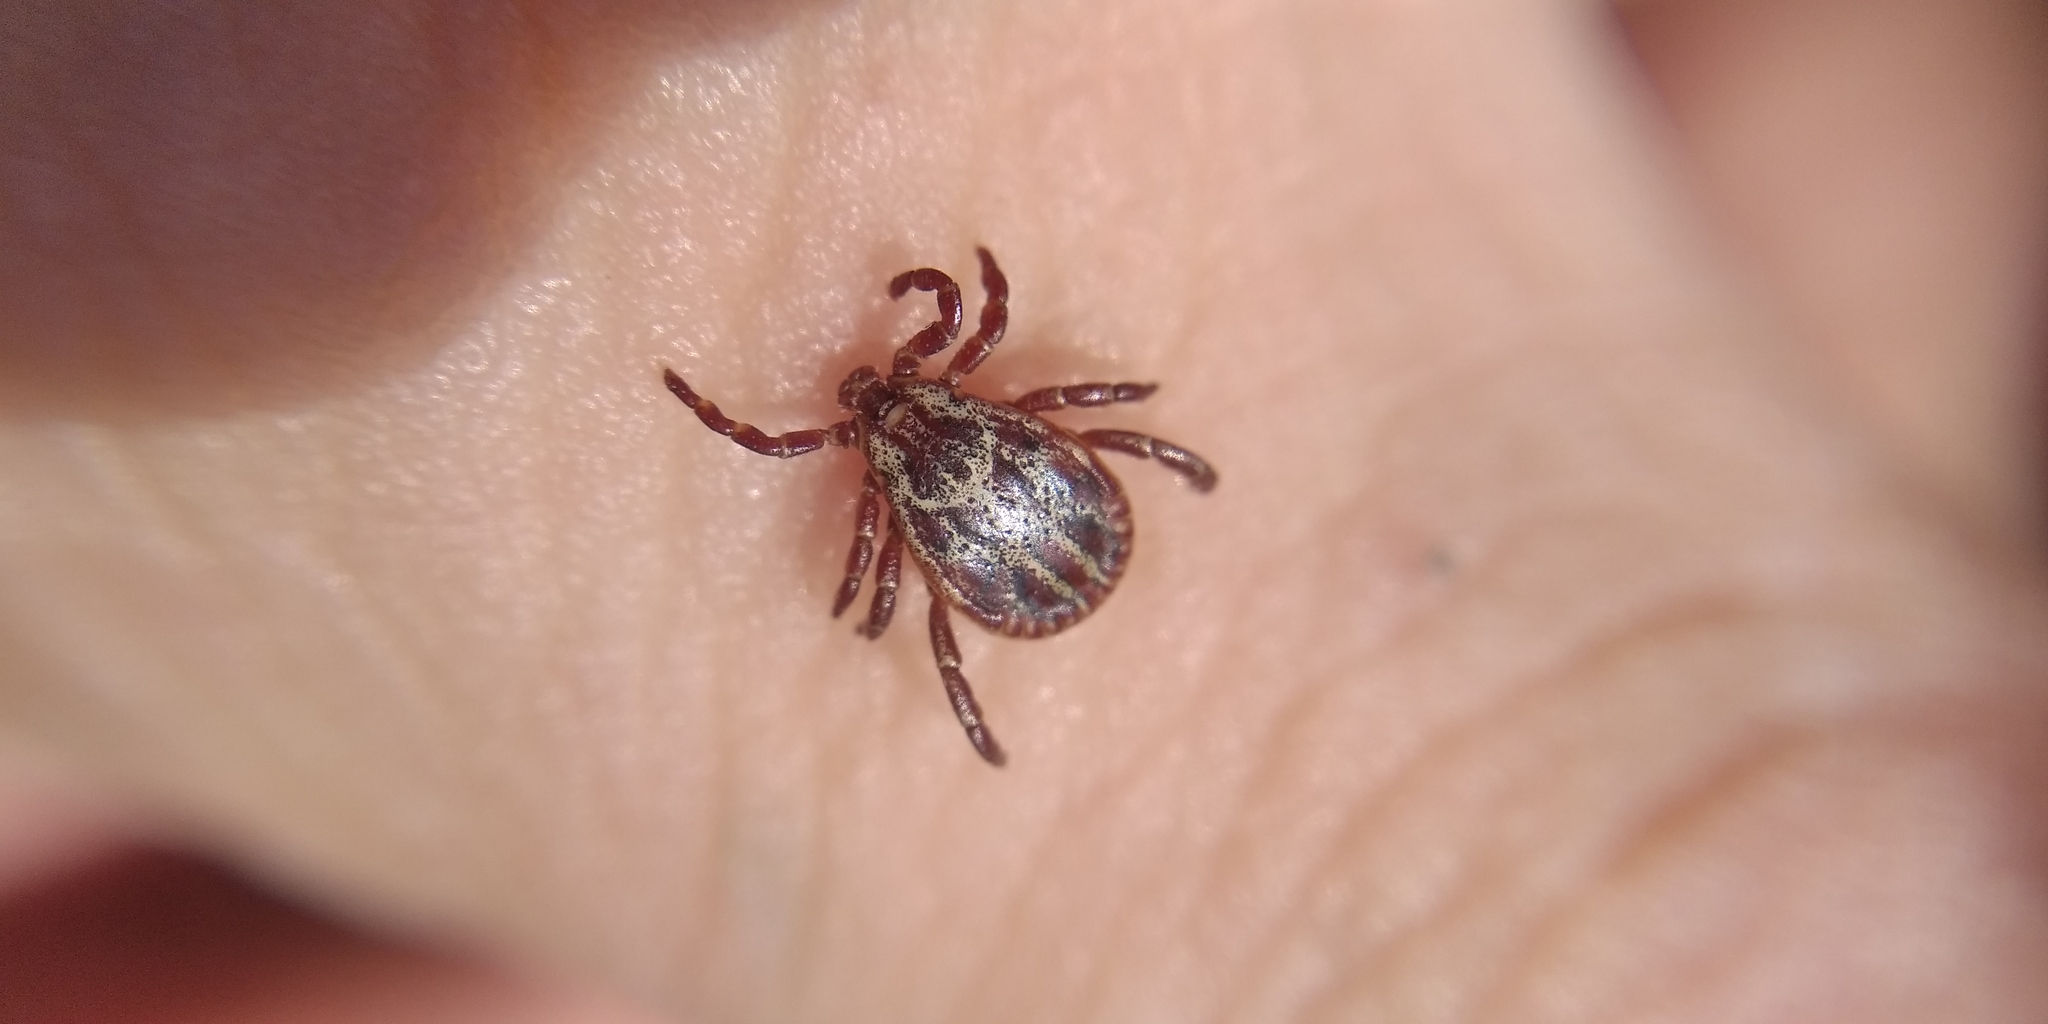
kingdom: Animalia
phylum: Arthropoda
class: Arachnida
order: Ixodida
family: Ixodidae
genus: Dermacentor
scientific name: Dermacentor reticulatus
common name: Ornate cow tick
